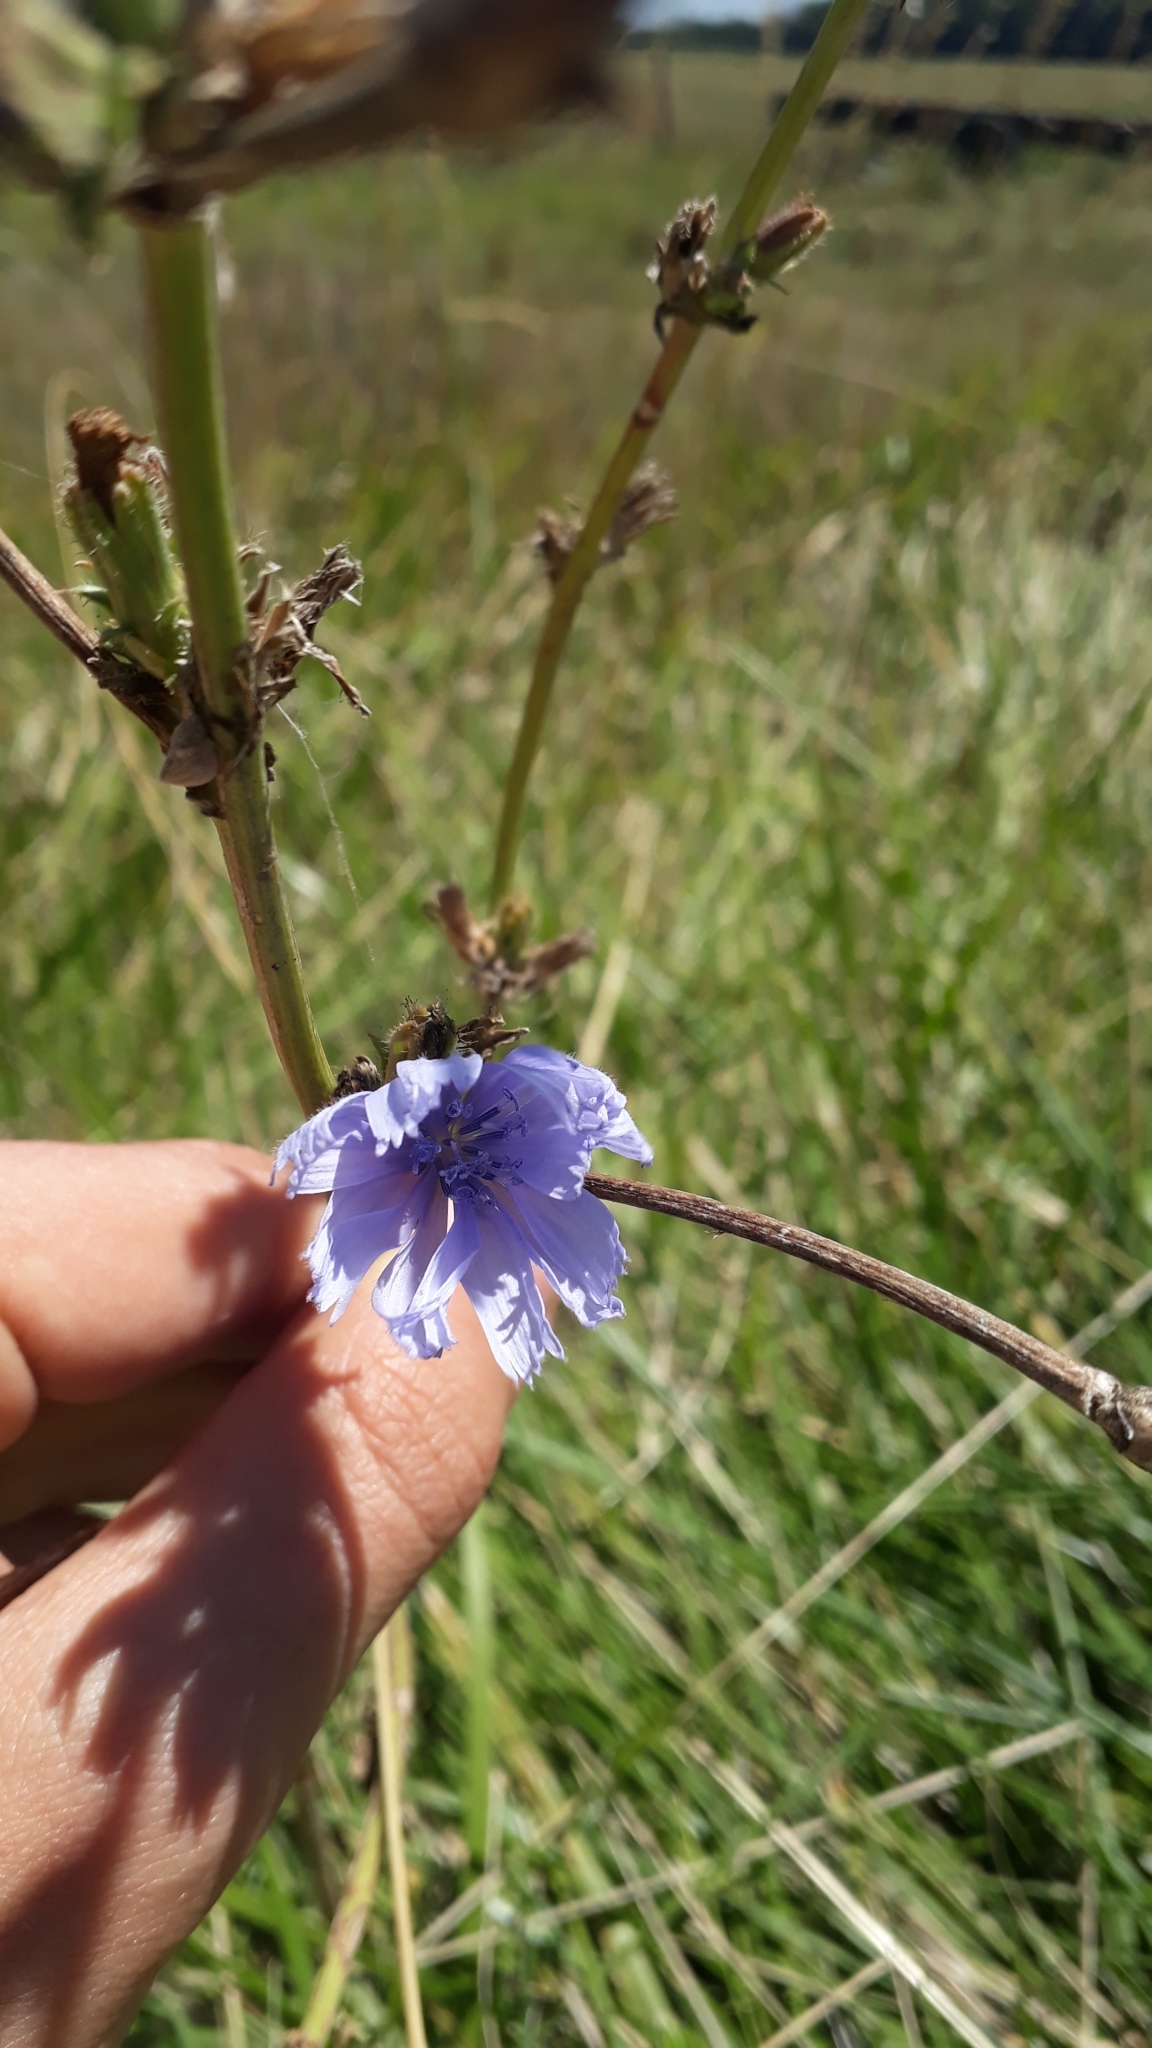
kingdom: Plantae
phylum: Tracheophyta
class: Magnoliopsida
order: Asterales
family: Asteraceae
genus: Cichorium
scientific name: Cichorium intybus
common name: Chicory
